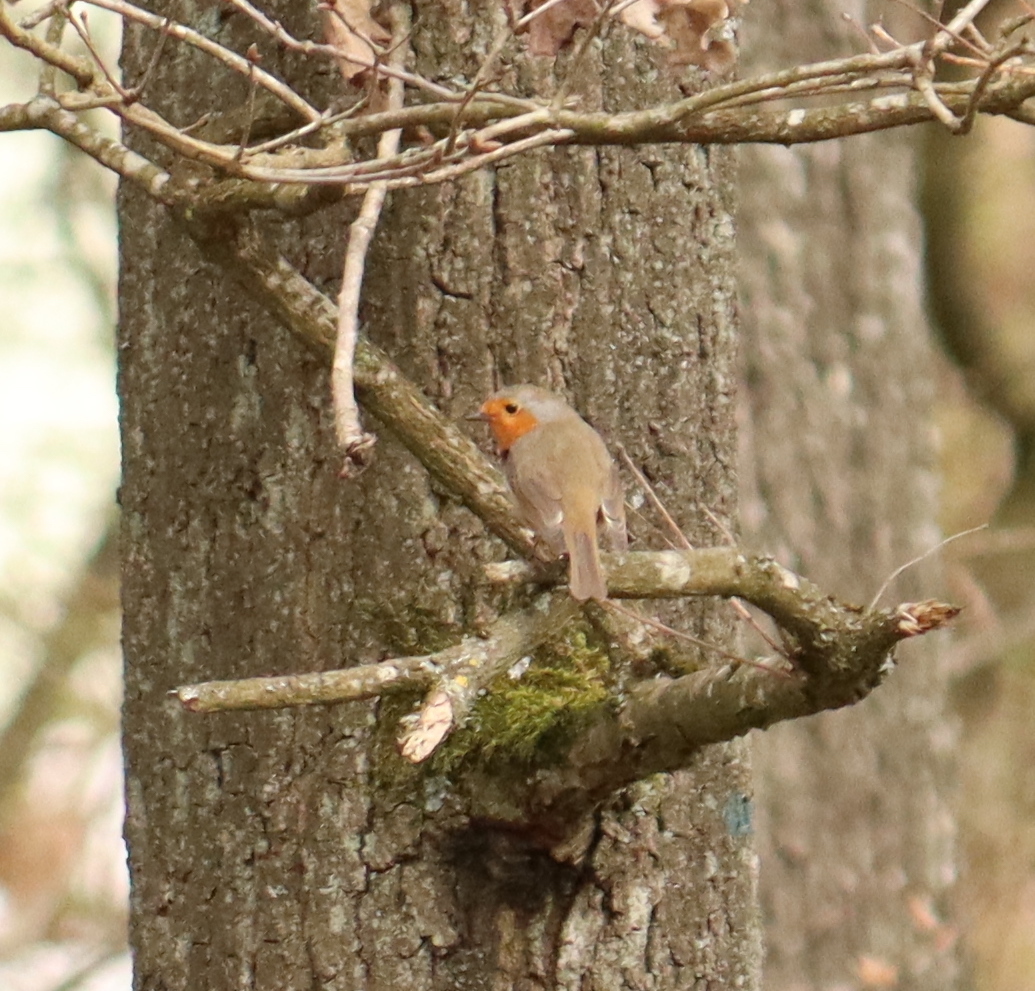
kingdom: Animalia
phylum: Chordata
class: Aves
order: Passeriformes
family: Muscicapidae
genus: Erithacus
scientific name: Erithacus rubecula
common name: European robin
